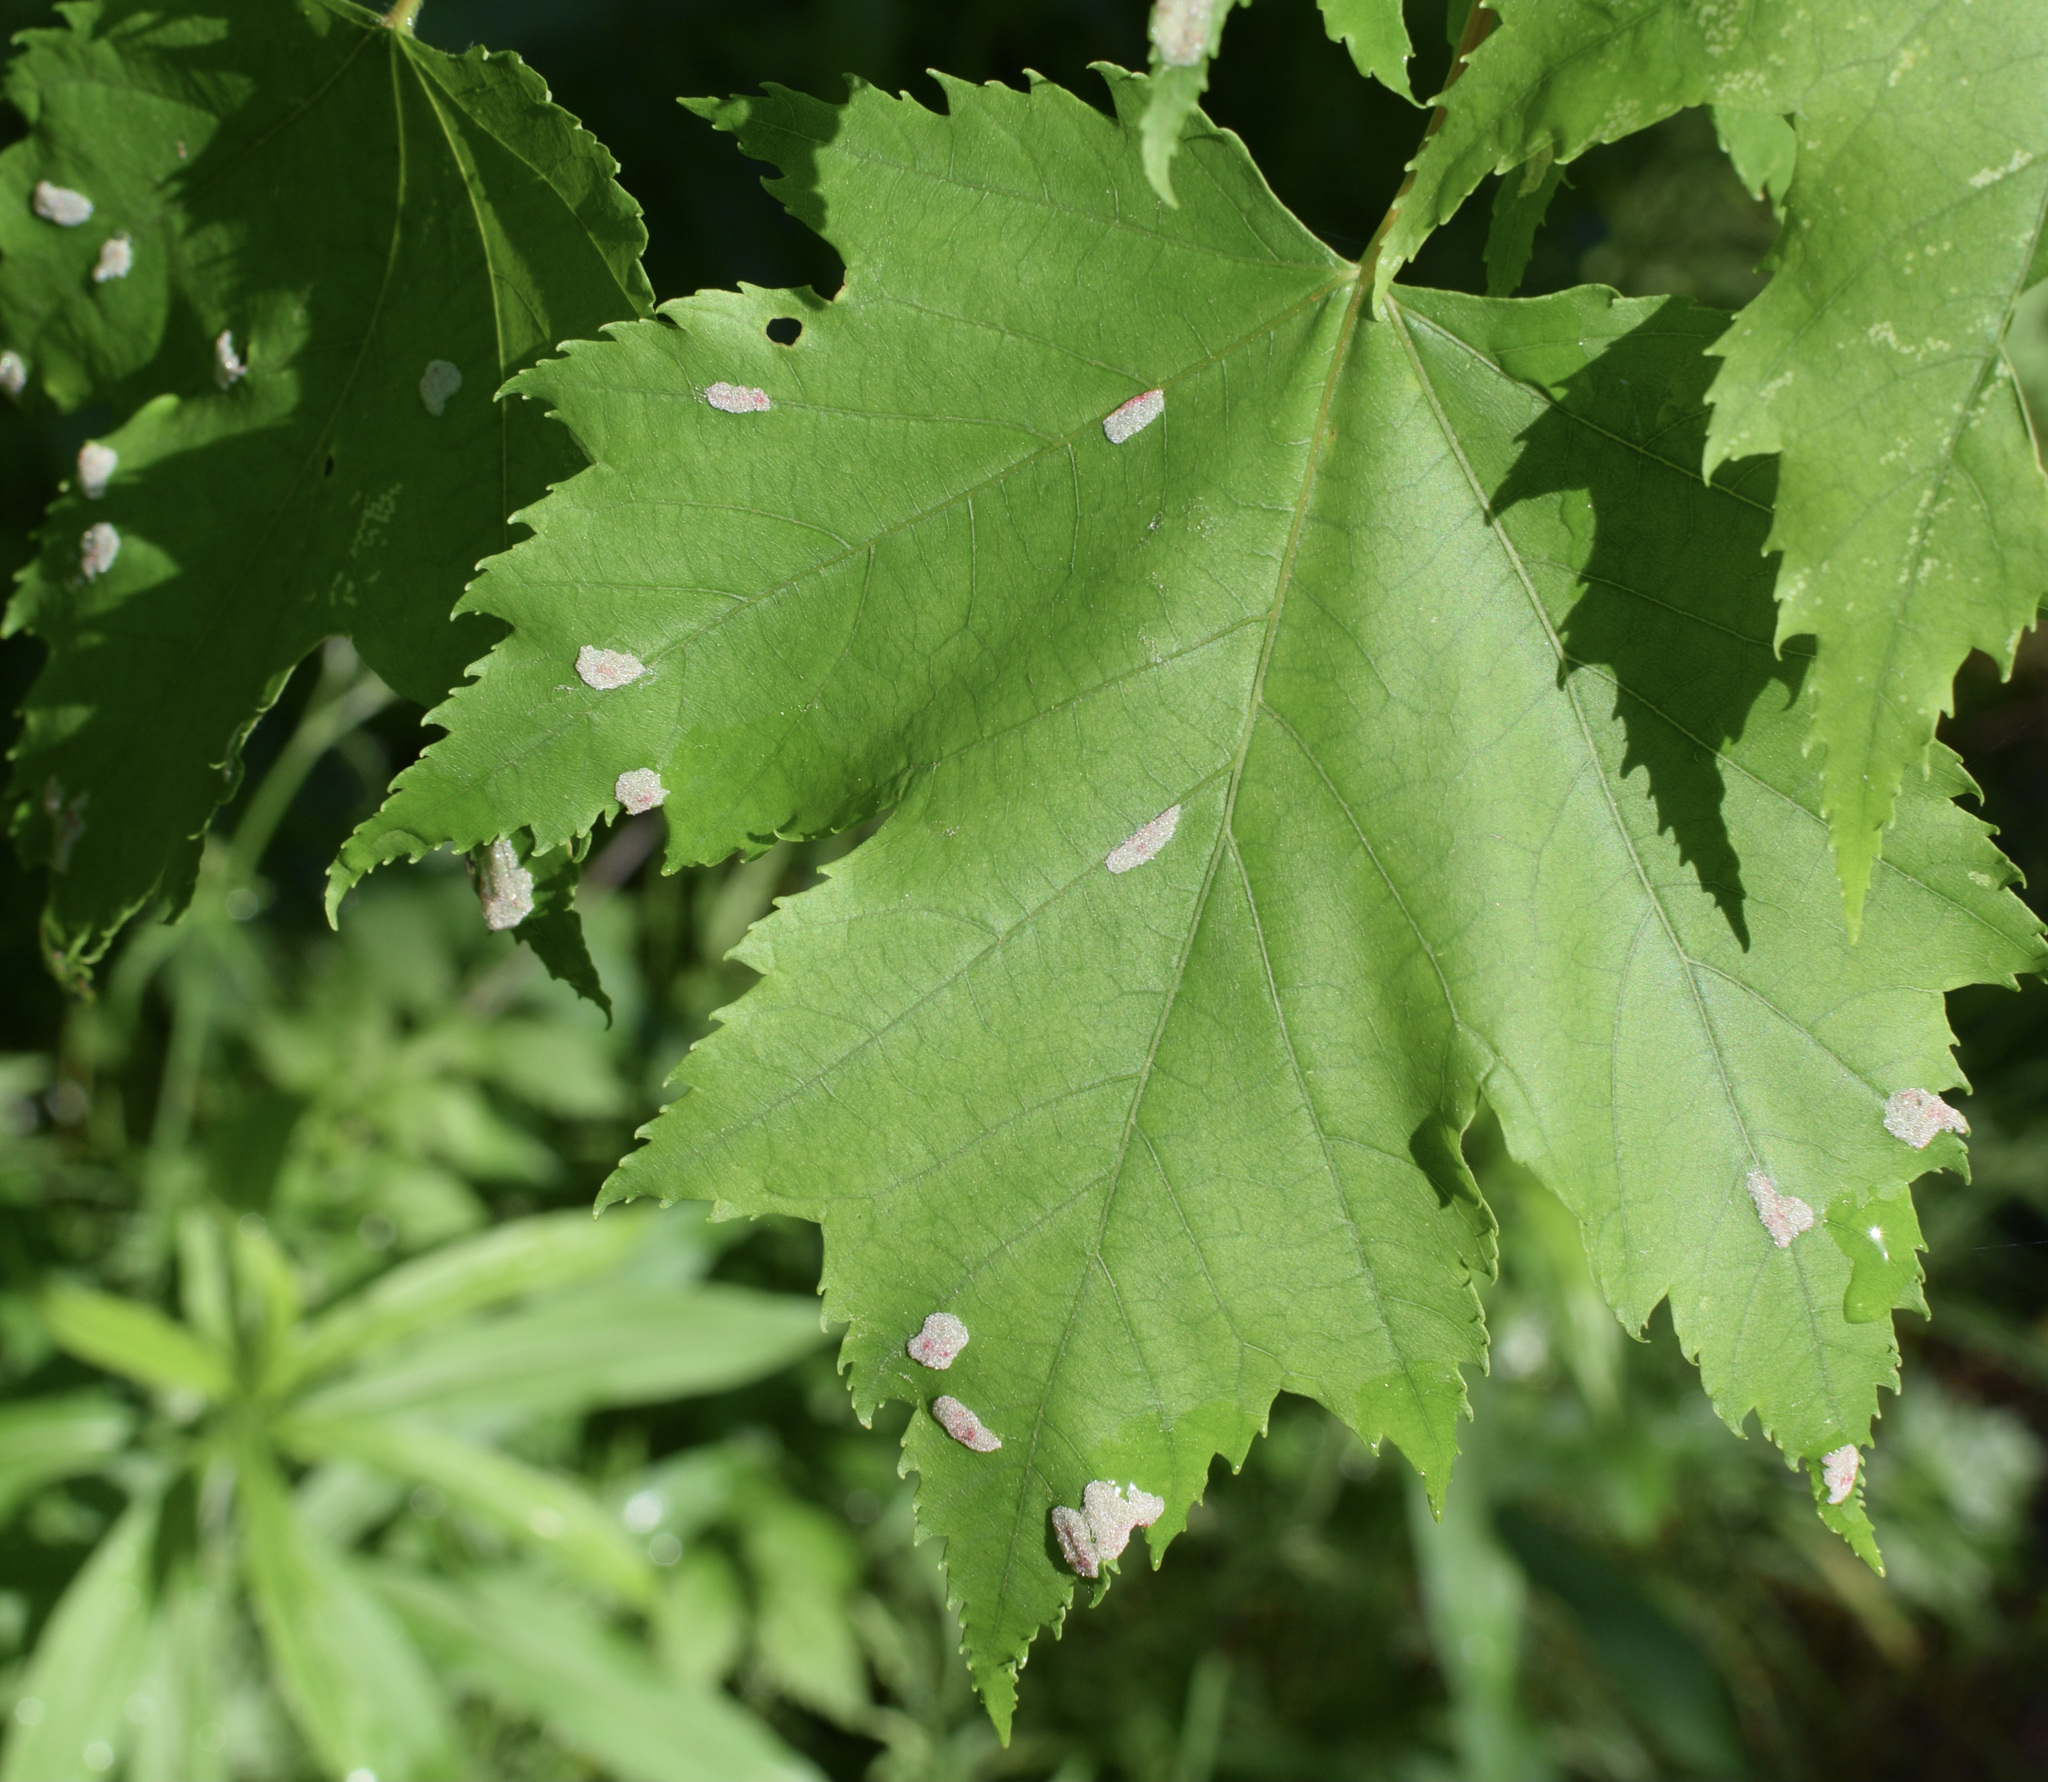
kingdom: Animalia
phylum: Arthropoda
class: Arachnida
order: Trombidiformes
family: Eriophyidae
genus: Aculus
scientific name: Aculus
